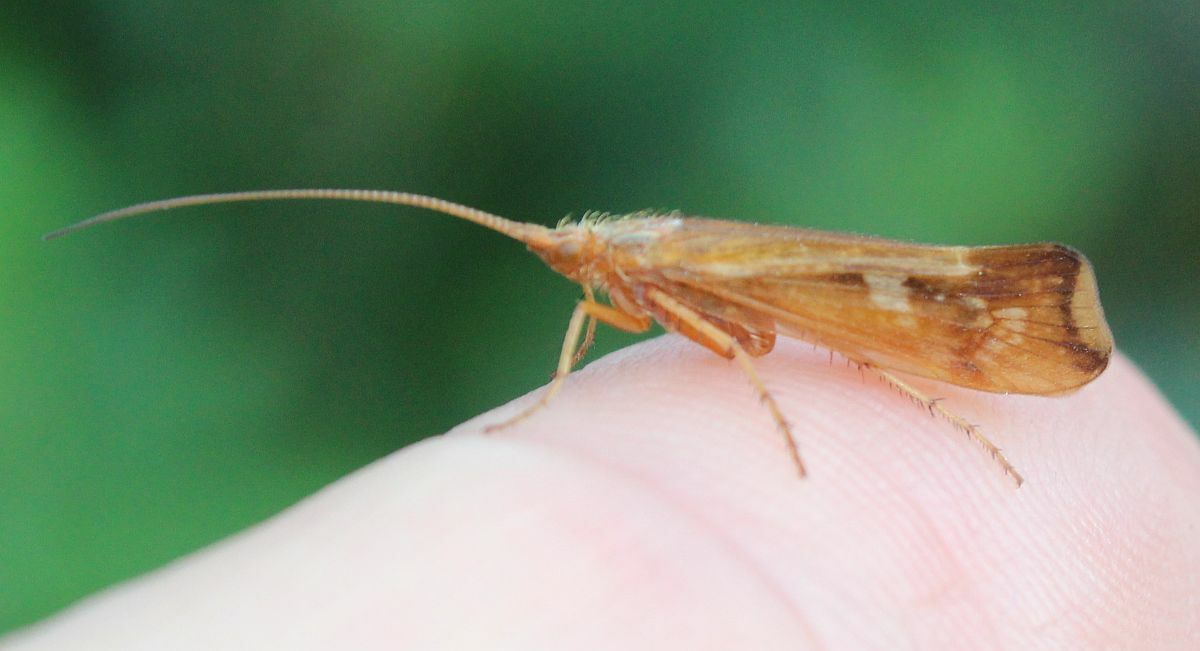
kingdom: Animalia
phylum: Arthropoda
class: Insecta
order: Trichoptera
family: Limnephilidae
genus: Limnephilus
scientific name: Limnephilus lunatus
